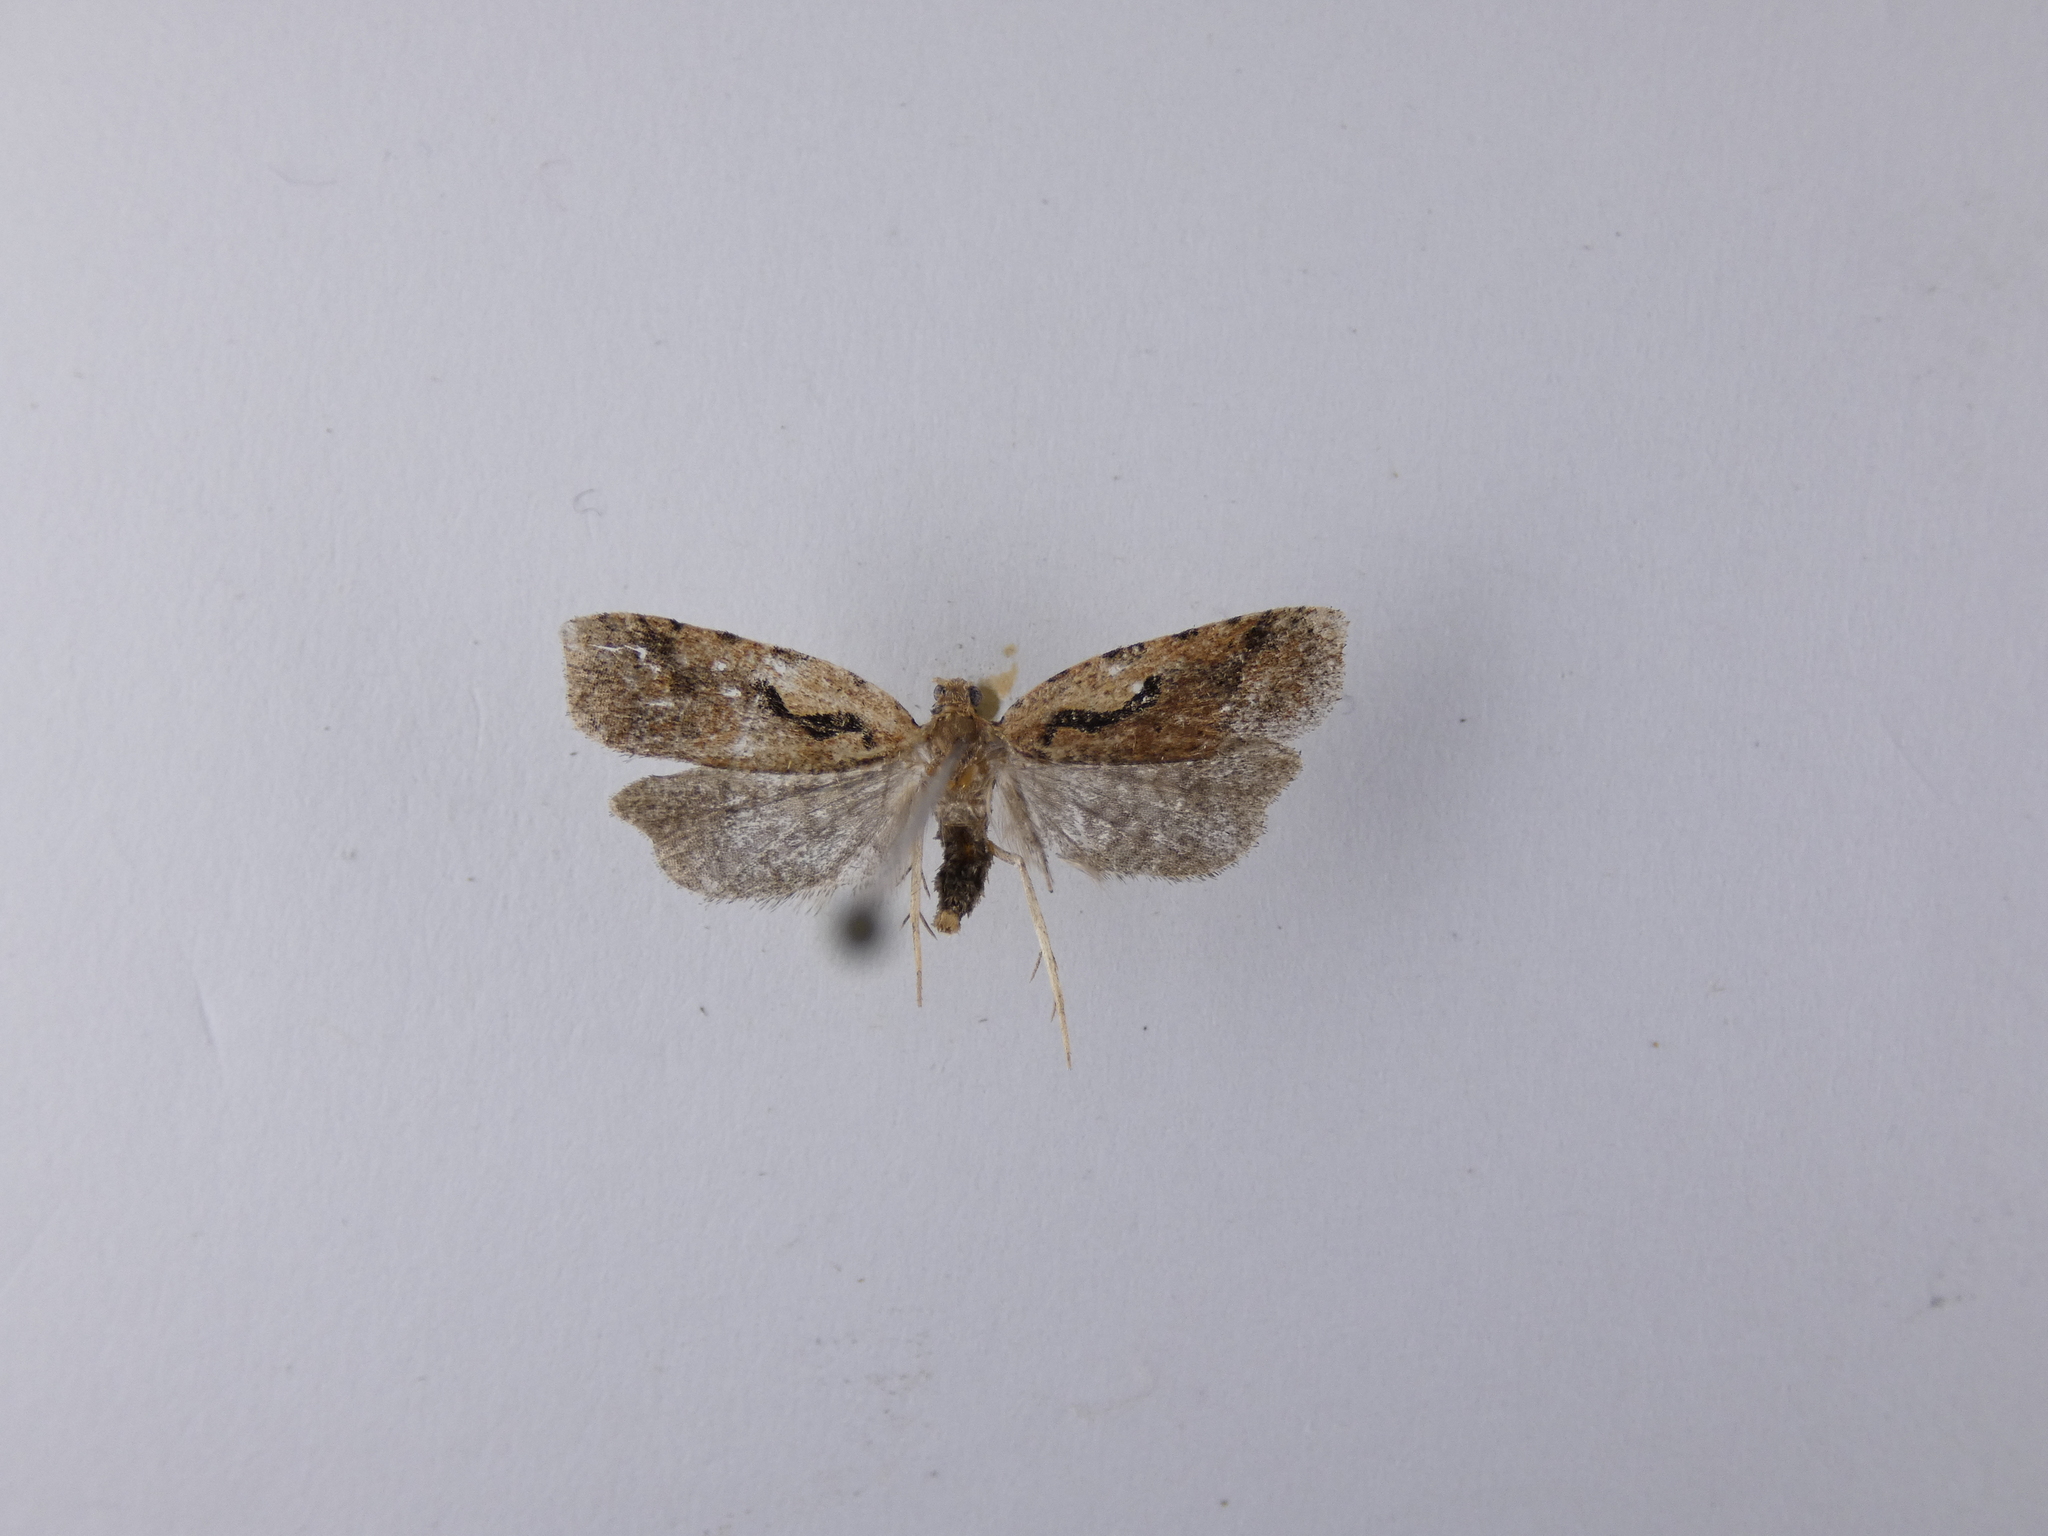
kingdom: Animalia
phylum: Arthropoda
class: Insecta
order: Lepidoptera
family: Tortricidae
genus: Cnephasia
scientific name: Cnephasia jactatana
